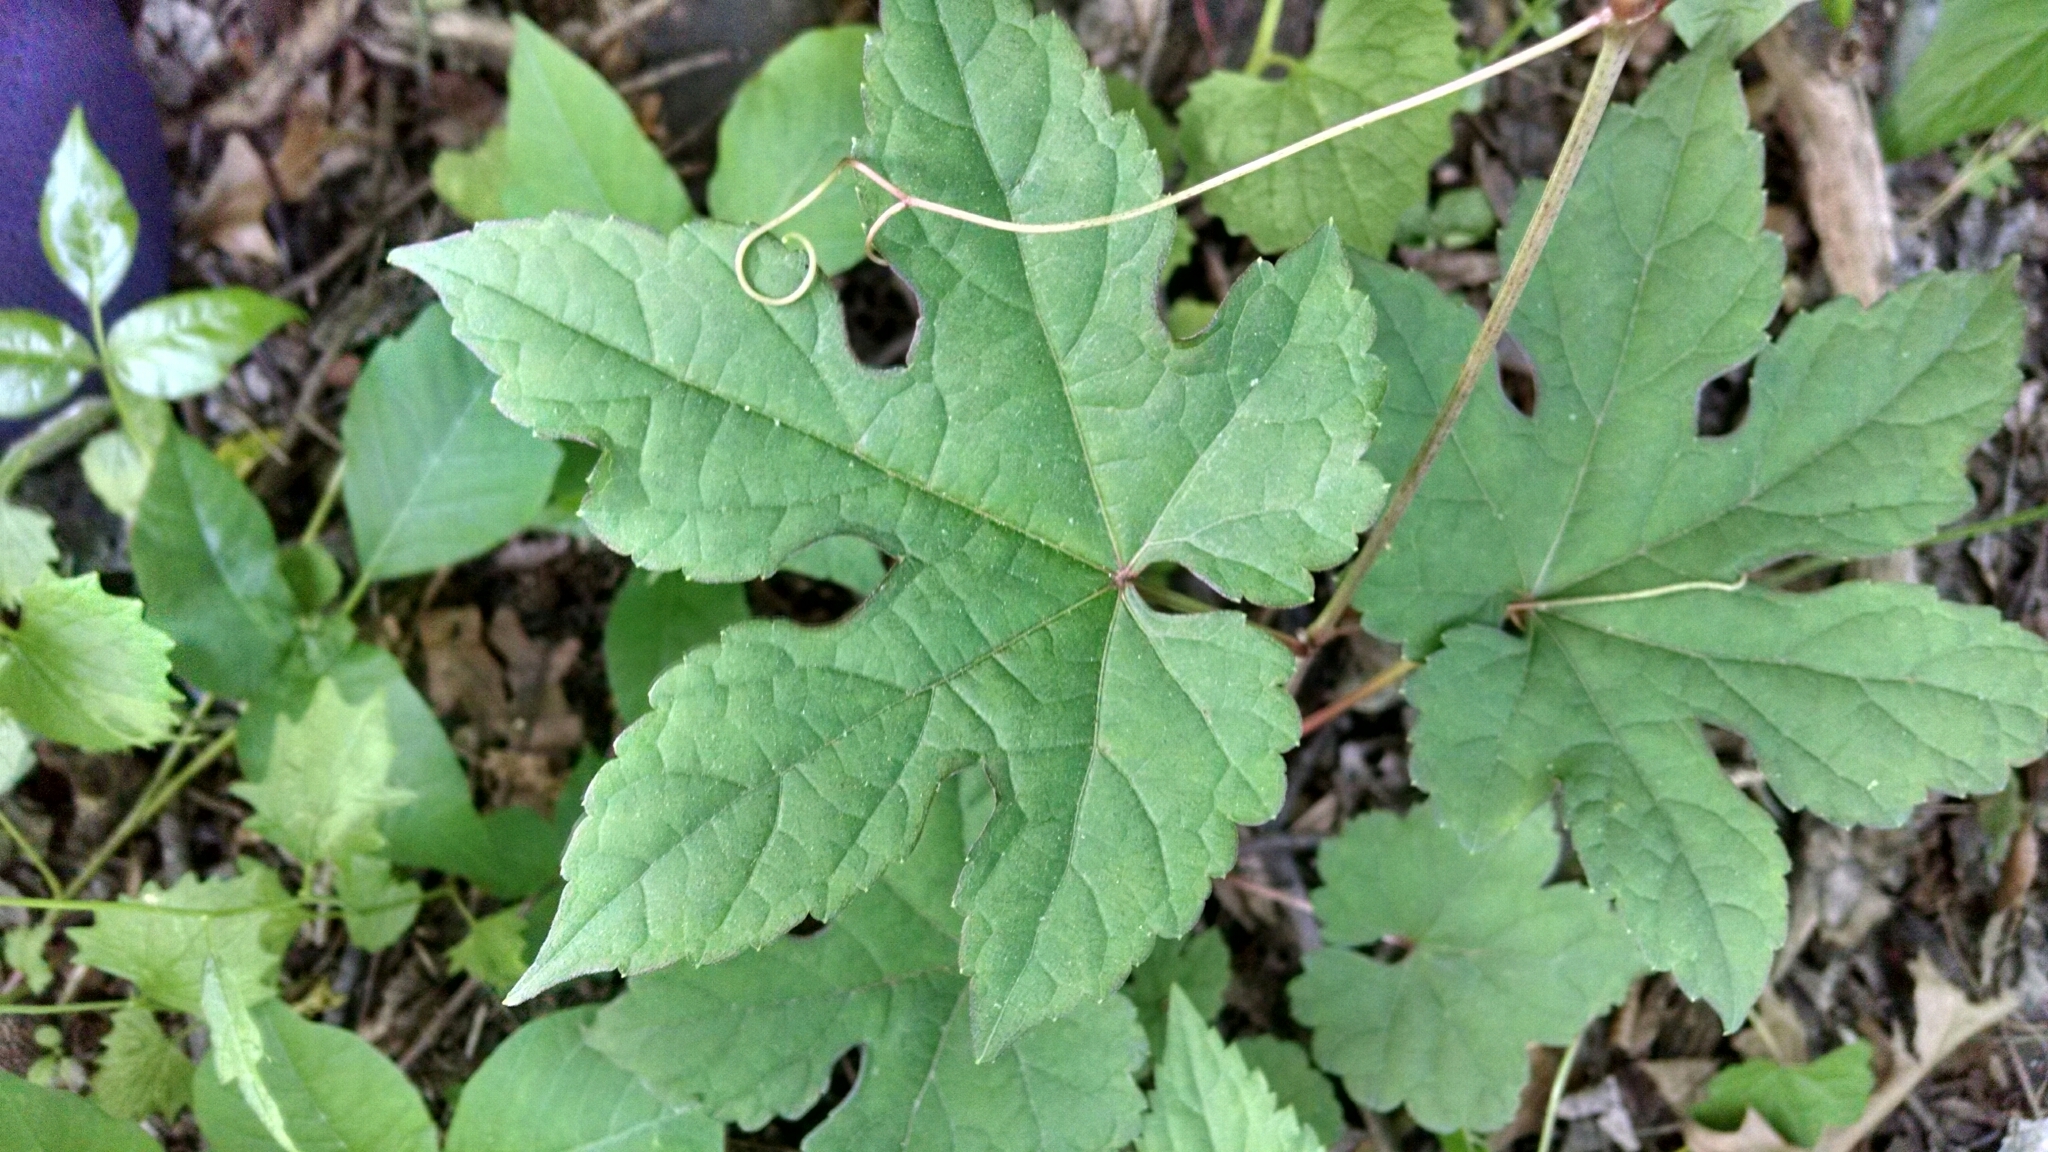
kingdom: Plantae
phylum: Tracheophyta
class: Magnoliopsida
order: Vitales
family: Vitaceae
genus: Ampelopsis
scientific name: Ampelopsis glandulosa
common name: Amur peppervine
